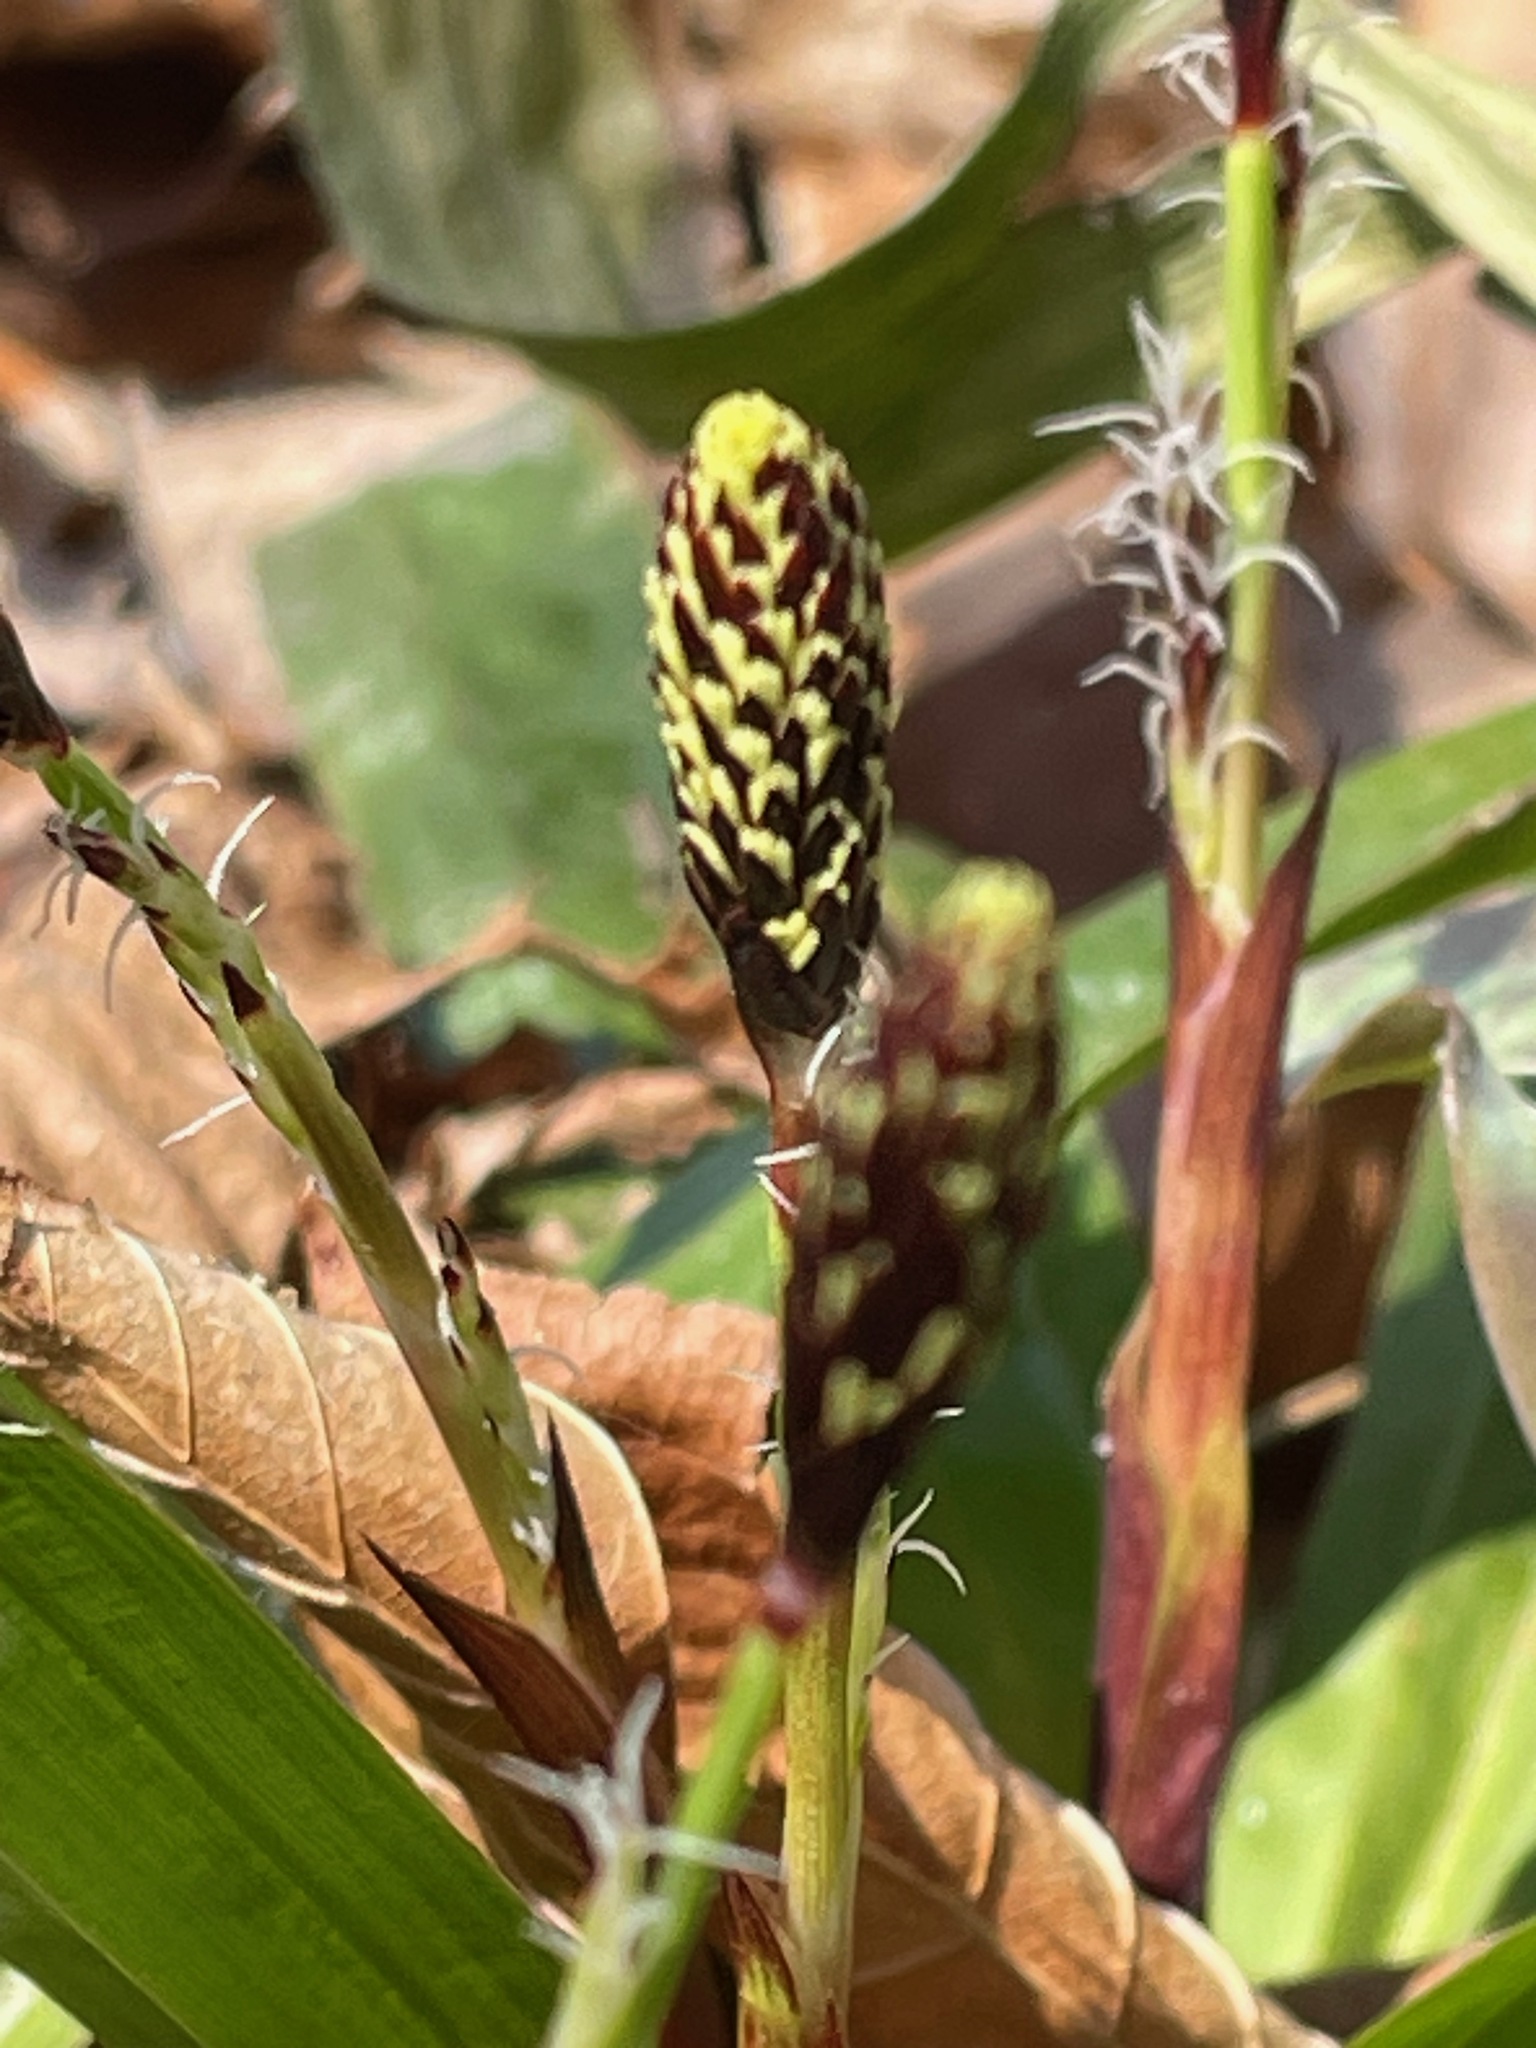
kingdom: Plantae
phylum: Tracheophyta
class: Liliopsida
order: Poales
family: Cyperaceae
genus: Carex
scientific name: Carex plantaginea
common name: Plantain-leaved sedge
